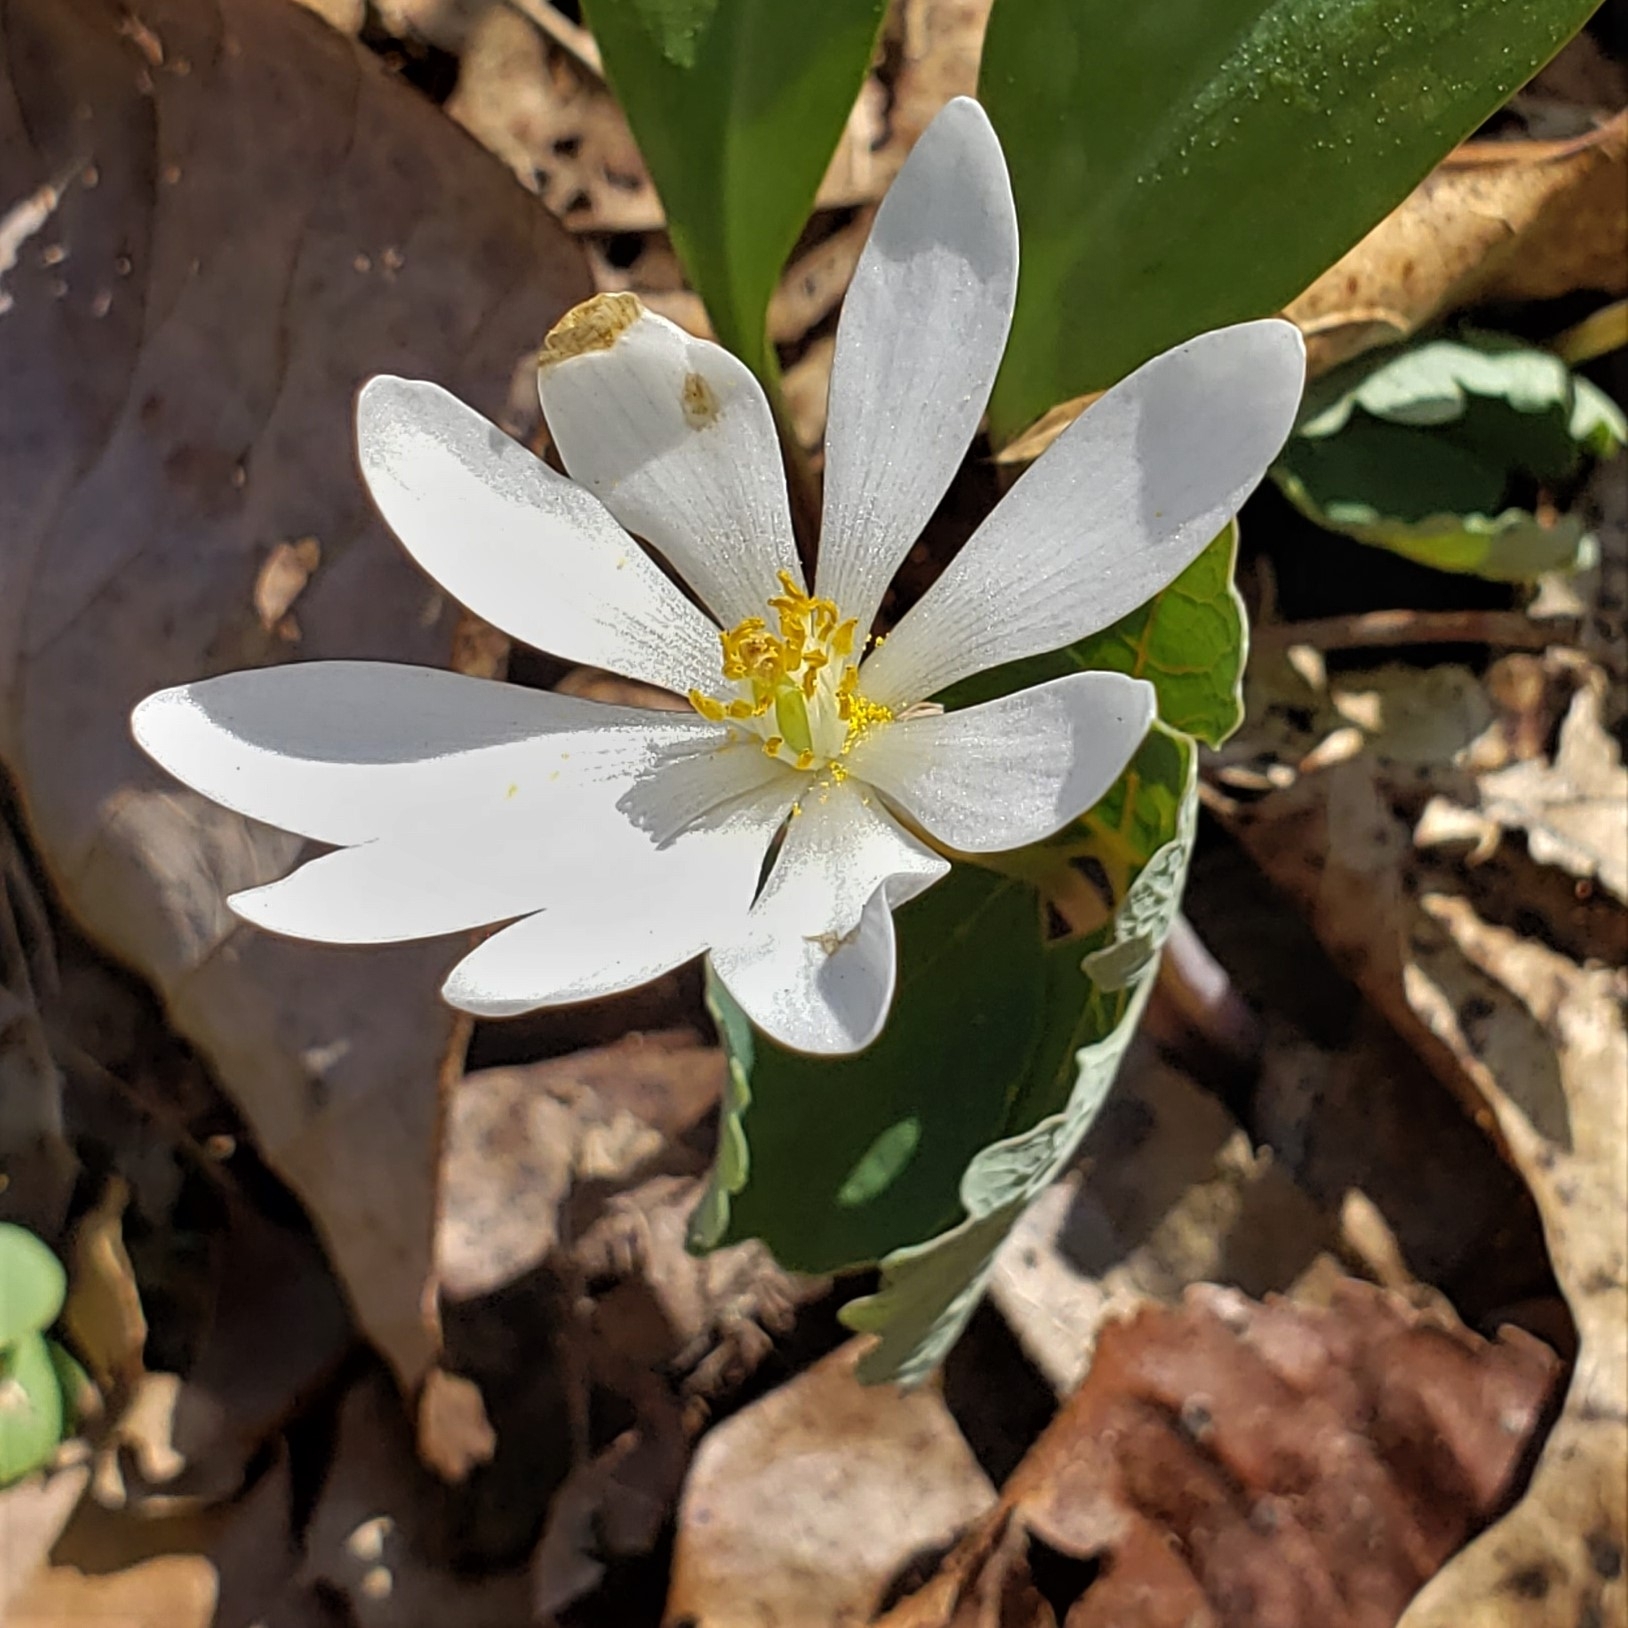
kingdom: Plantae
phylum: Tracheophyta
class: Magnoliopsida
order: Ranunculales
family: Papaveraceae
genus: Sanguinaria
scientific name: Sanguinaria canadensis
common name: Bloodroot
